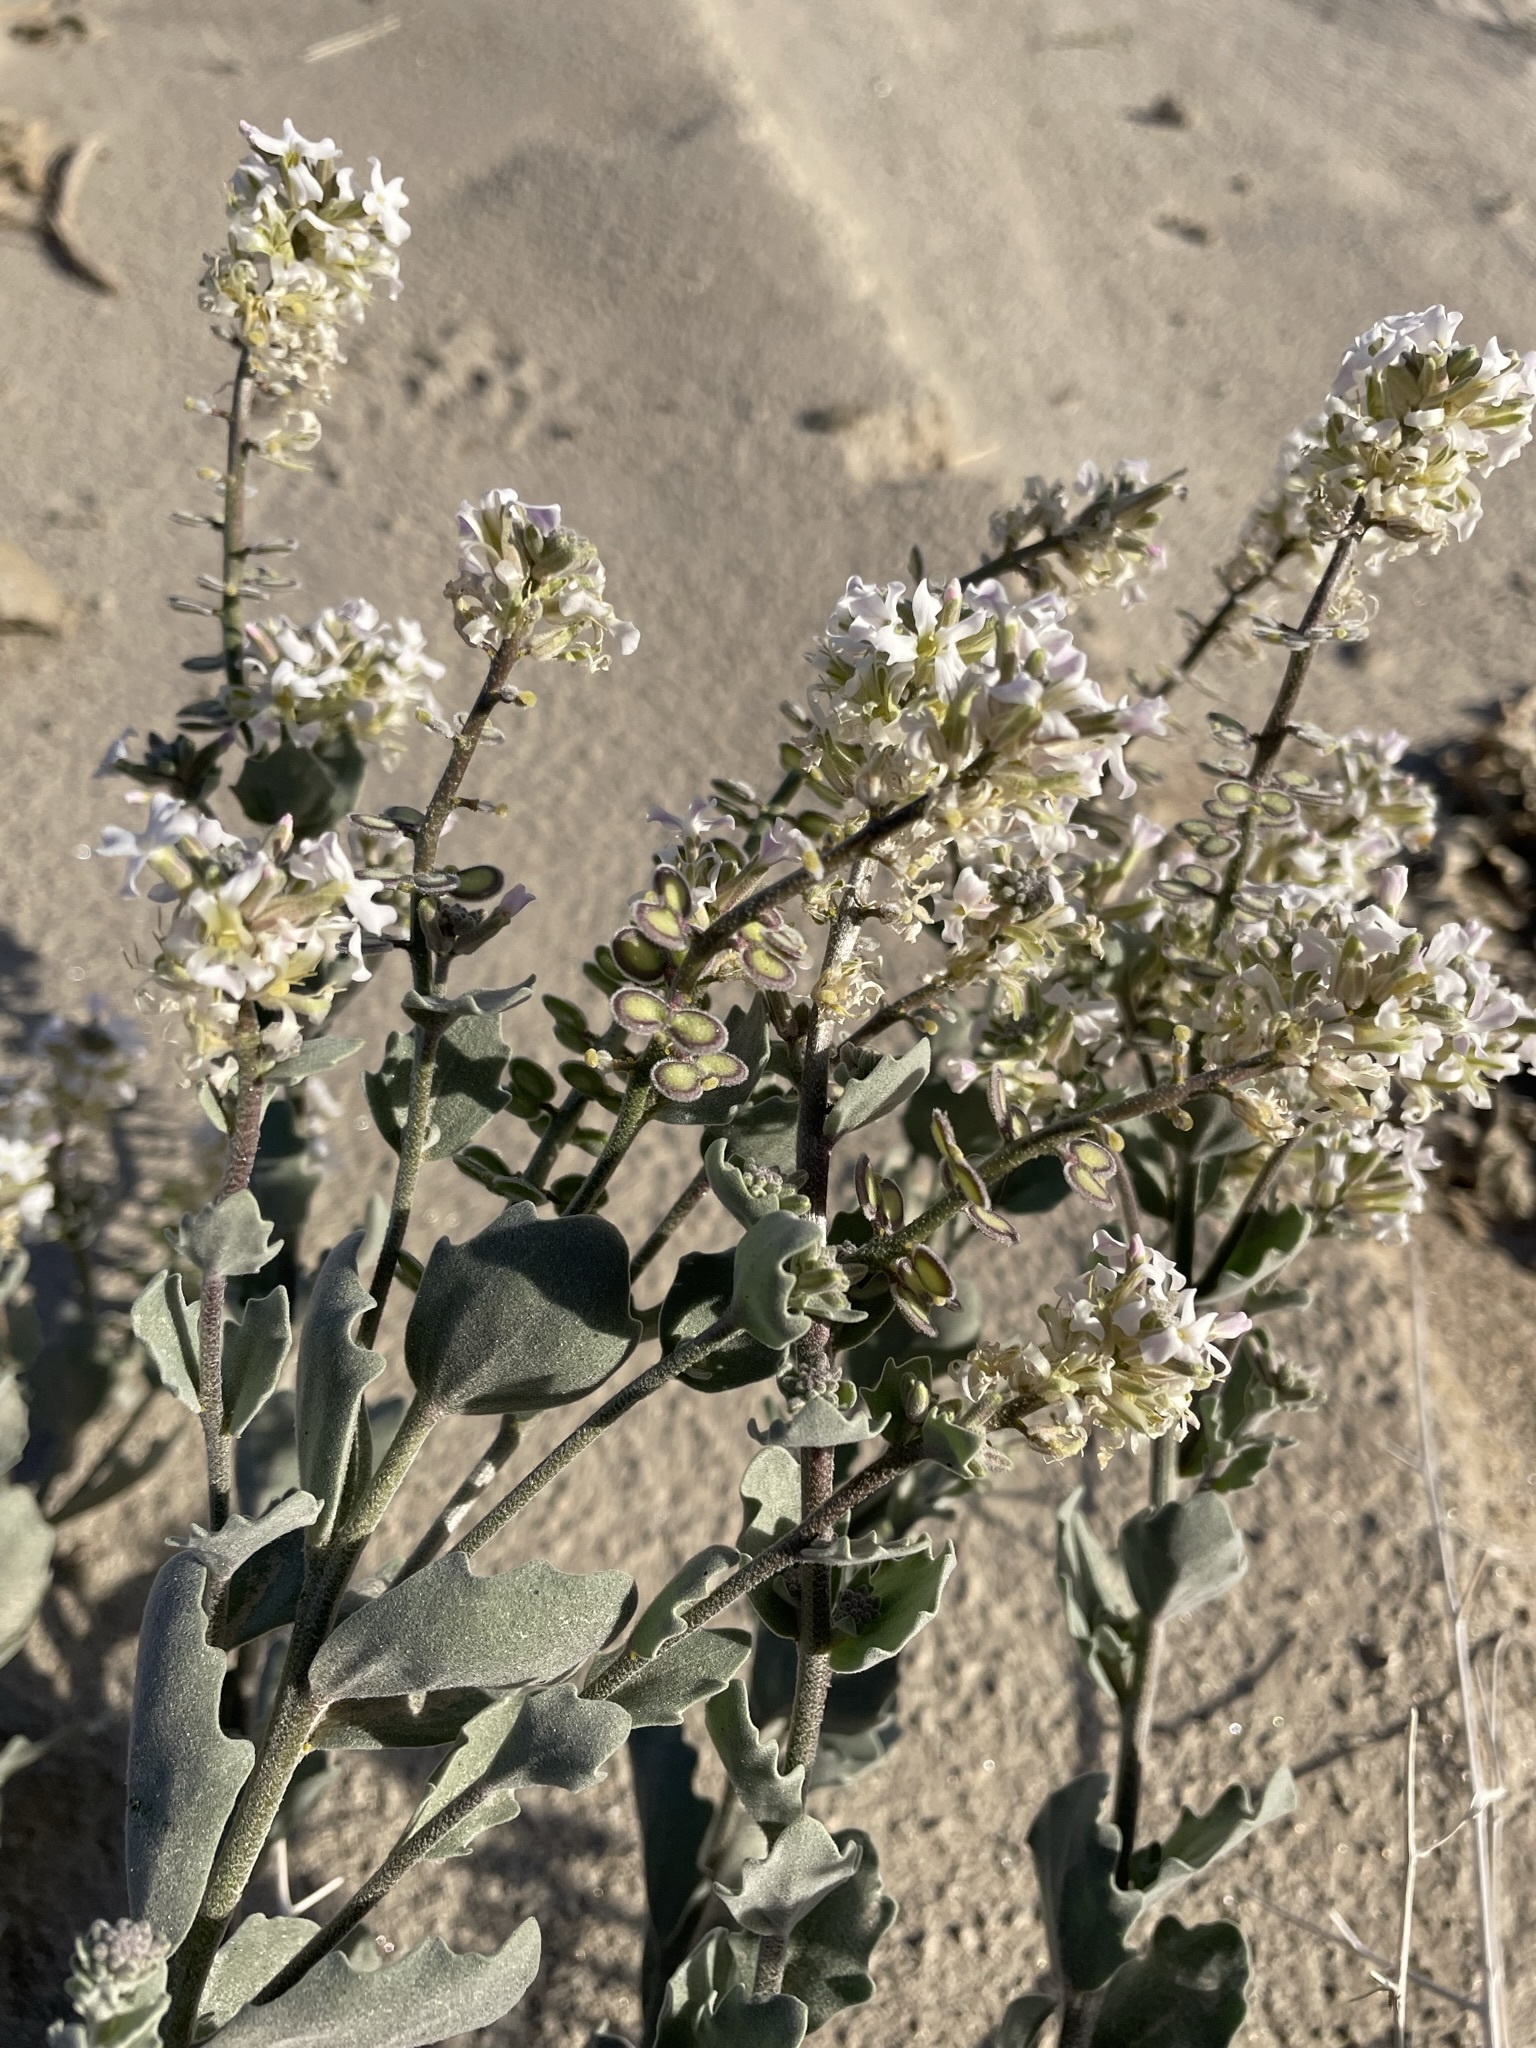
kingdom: Plantae
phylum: Tracheophyta
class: Magnoliopsida
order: Brassicales
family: Brassicaceae
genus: Dithyrea
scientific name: Dithyrea californica
